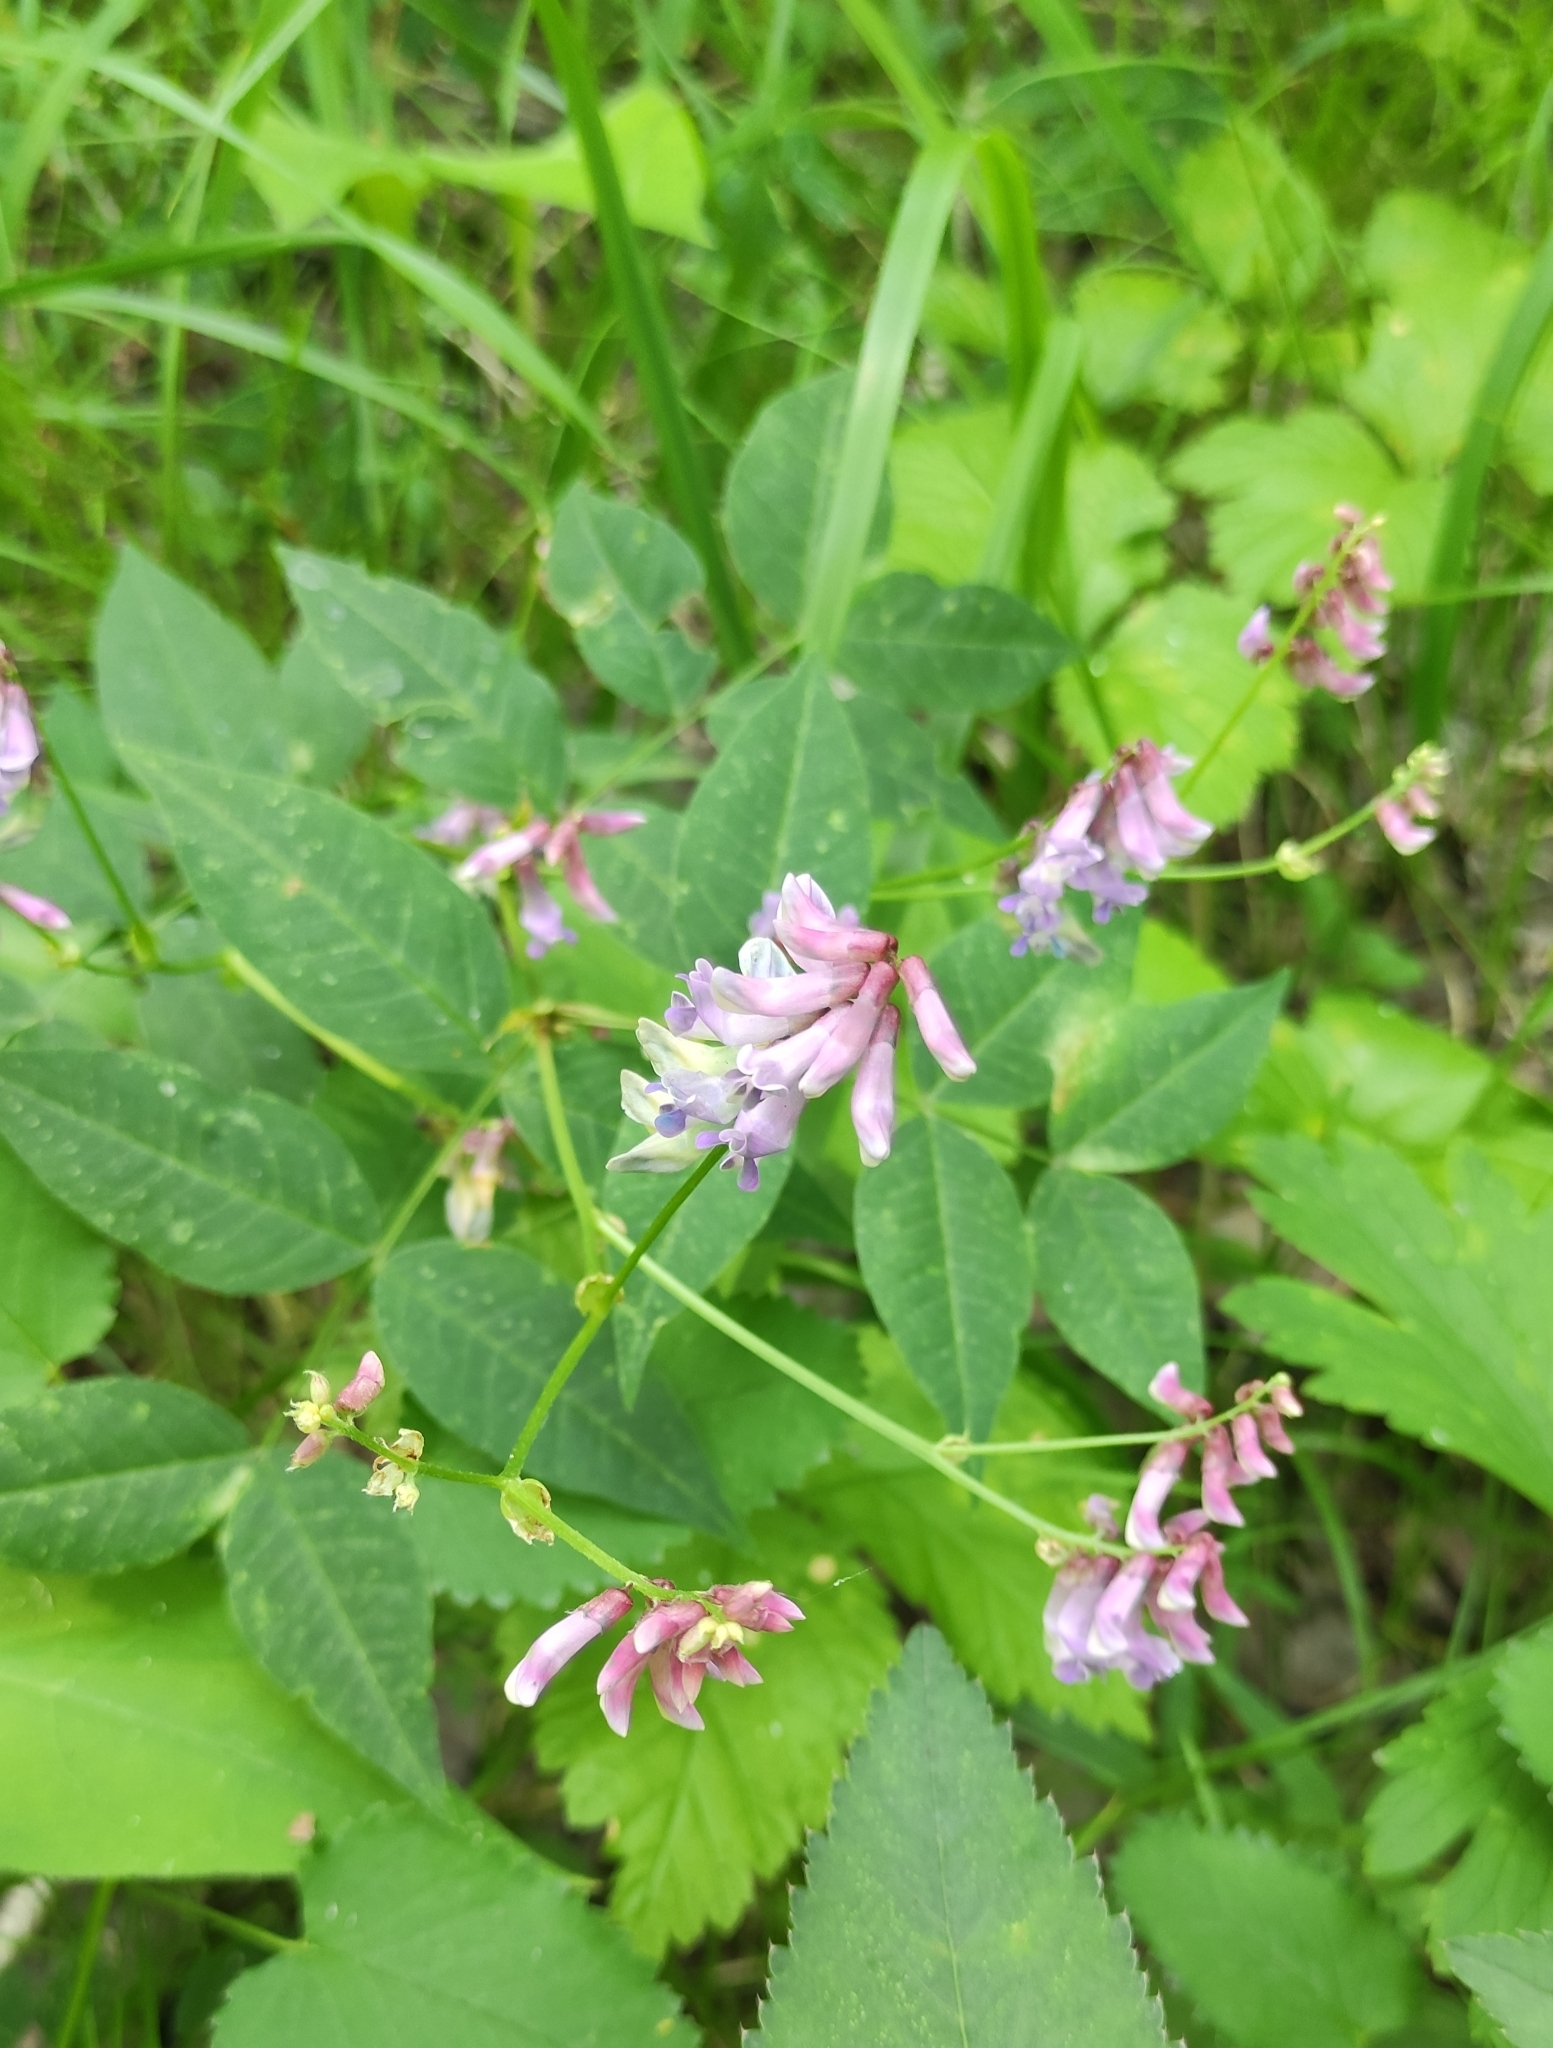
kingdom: Plantae
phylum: Tracheophyta
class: Magnoliopsida
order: Fabales
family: Fabaceae
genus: Vicia
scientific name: Vicia ramuliflora
